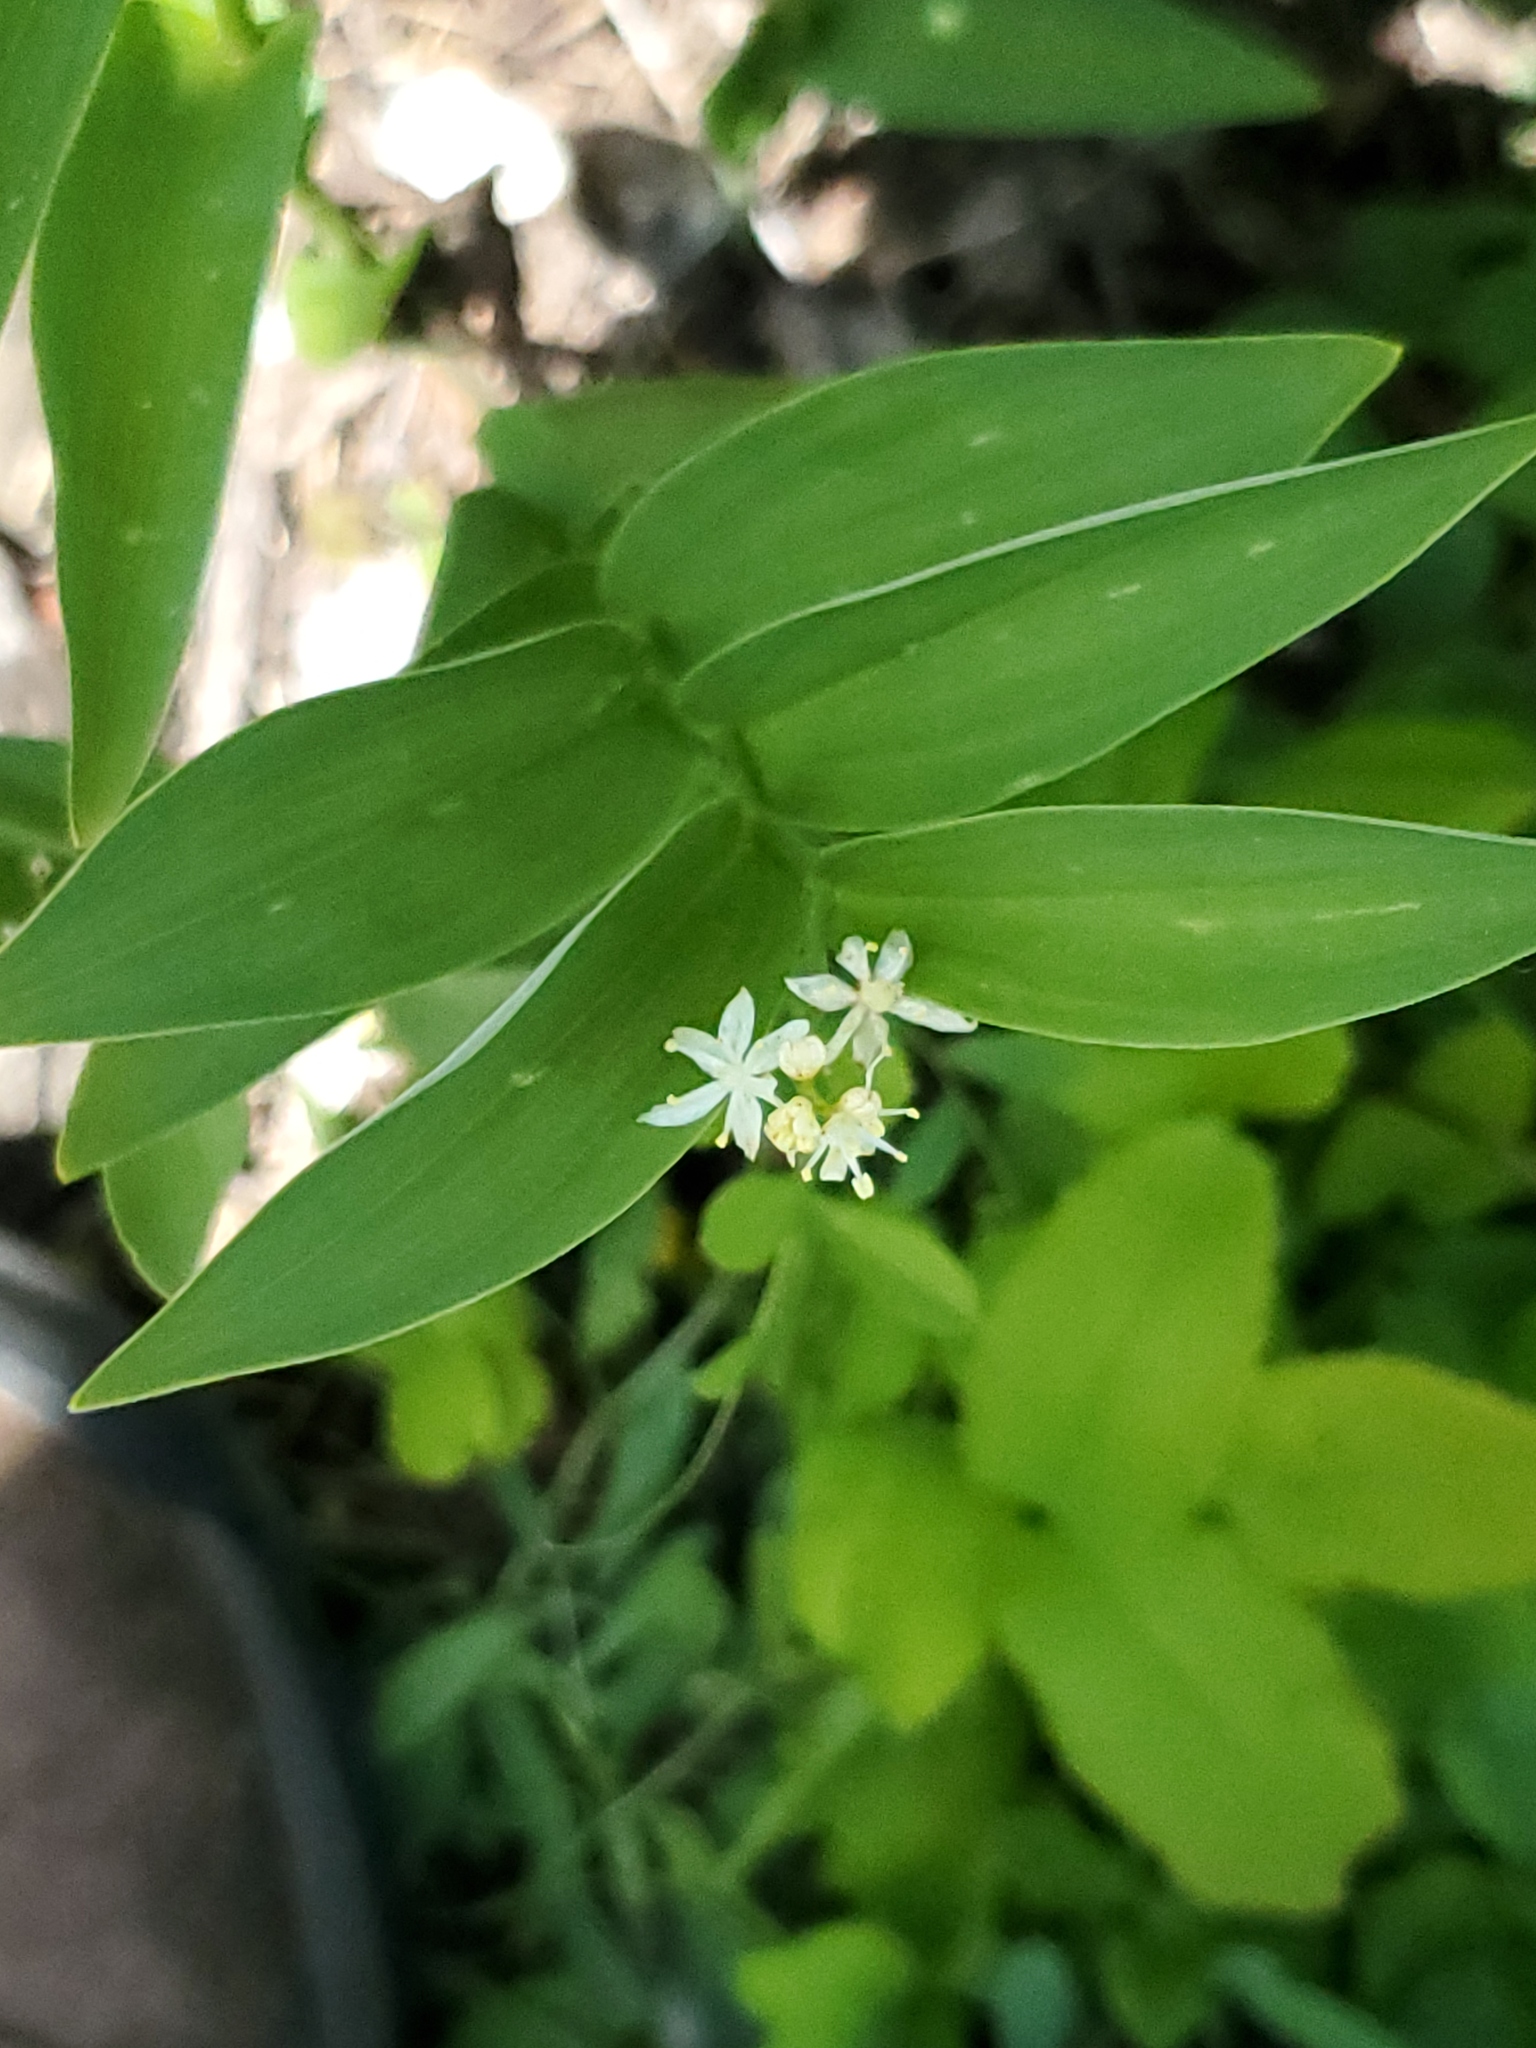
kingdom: Plantae
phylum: Tracheophyta
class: Liliopsida
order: Asparagales
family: Asparagaceae
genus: Maianthemum
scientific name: Maianthemum stellatum
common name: Little false solomon's seal
